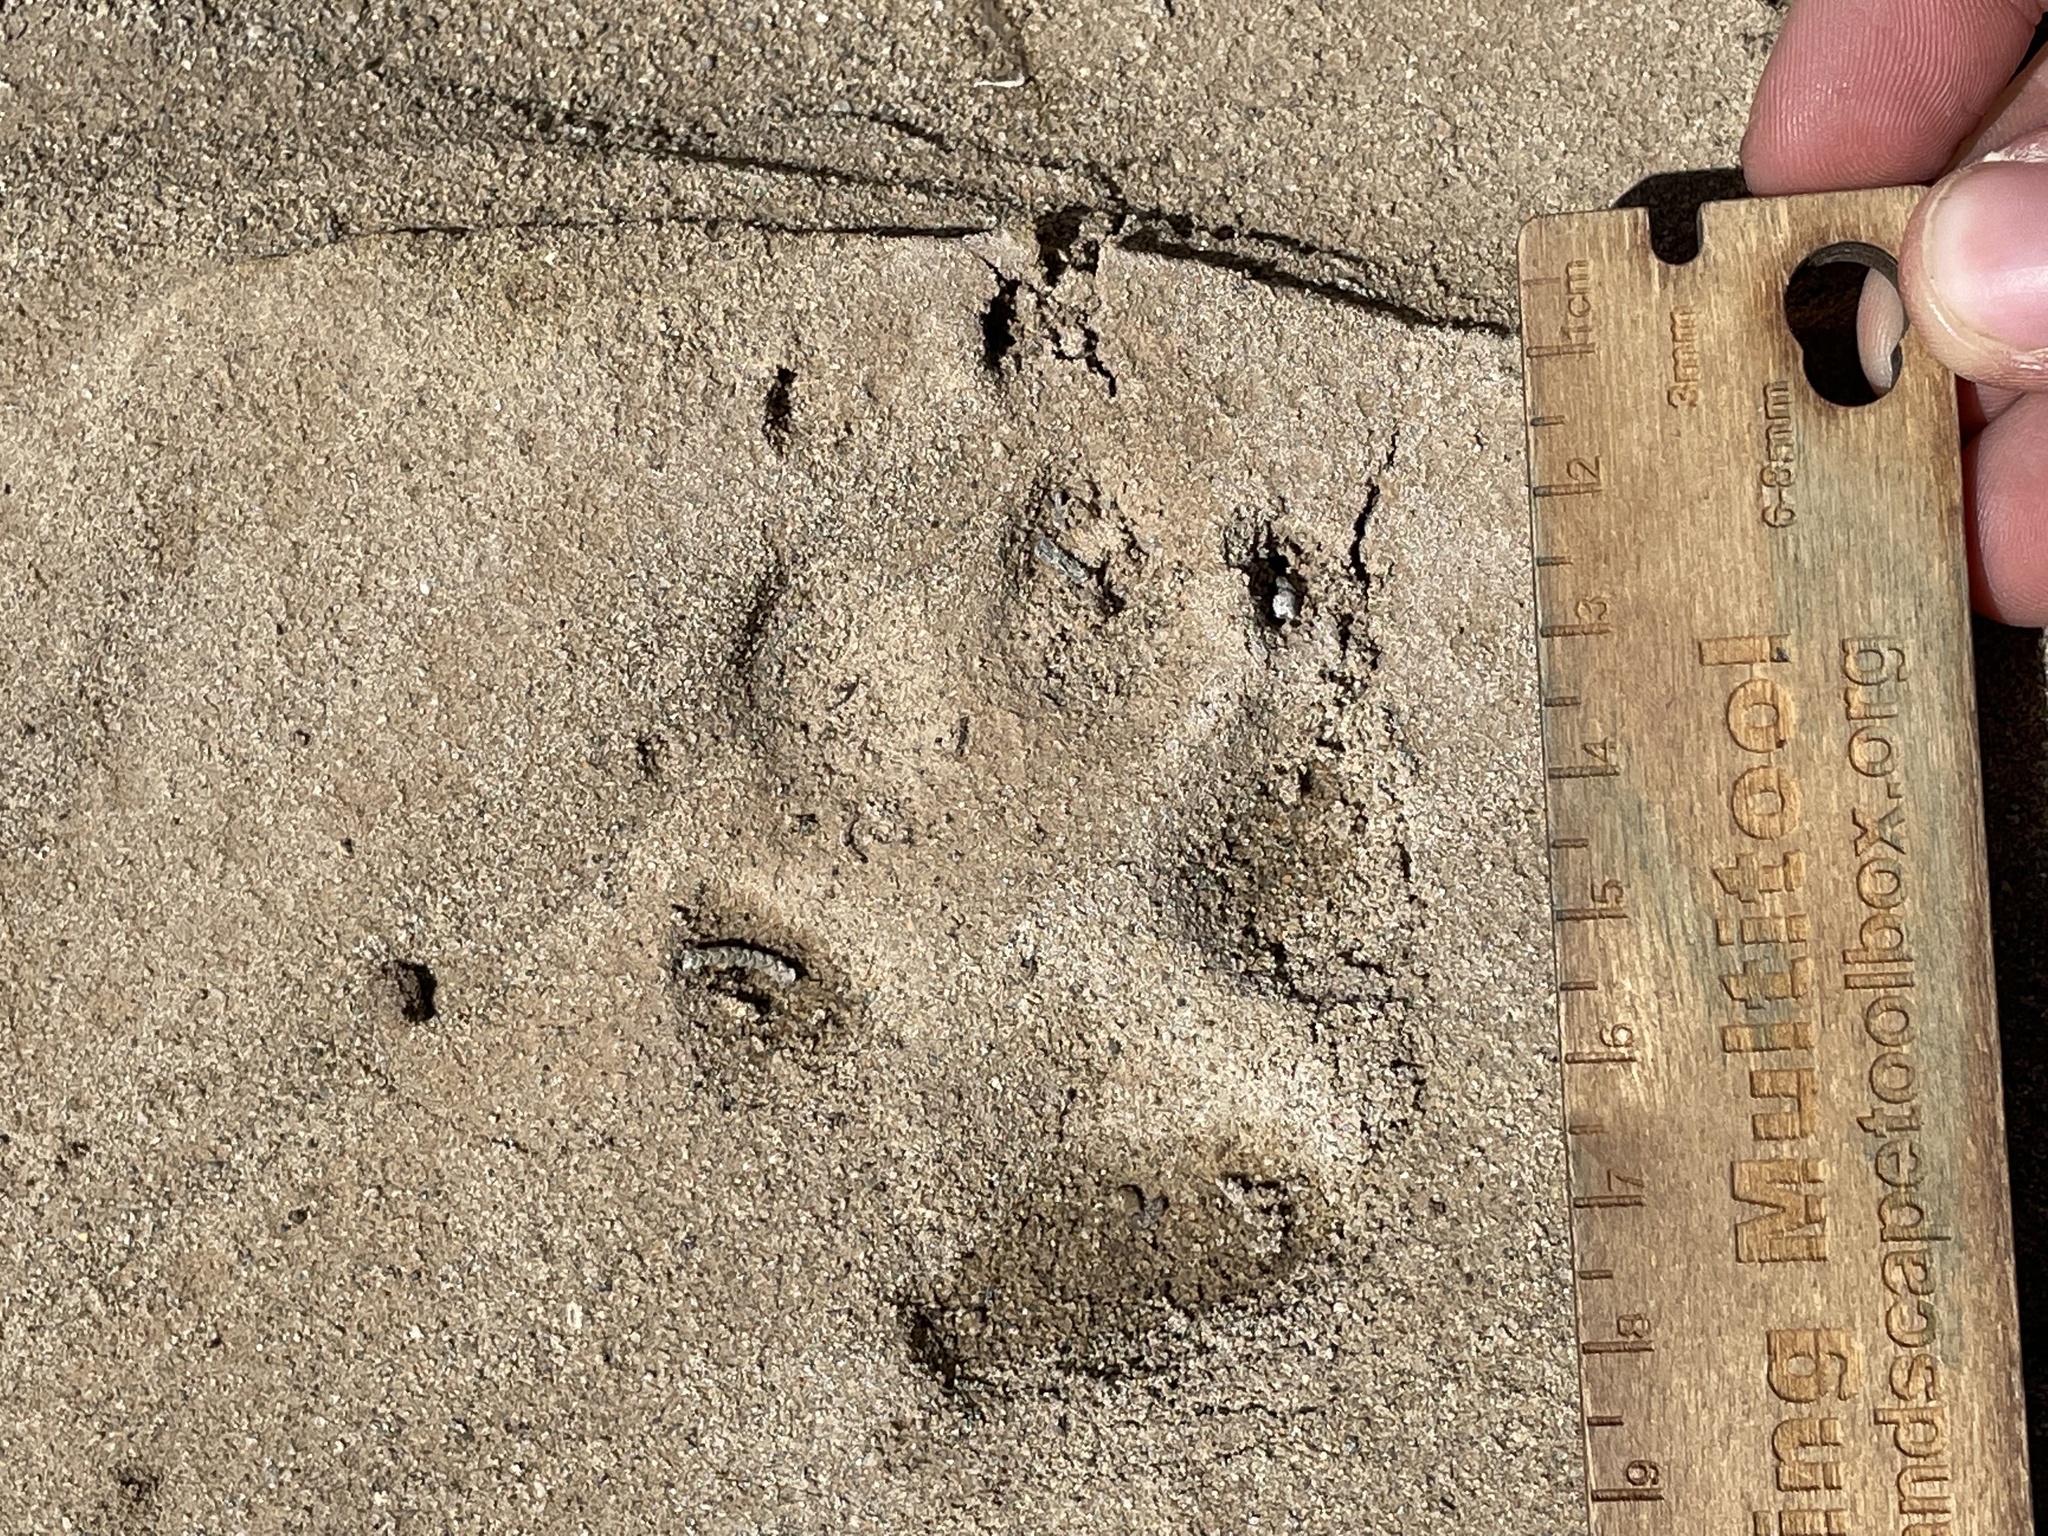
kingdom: Animalia
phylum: Chordata
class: Mammalia
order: Carnivora
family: Canidae
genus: Canis
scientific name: Canis latrans
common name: Coyote
